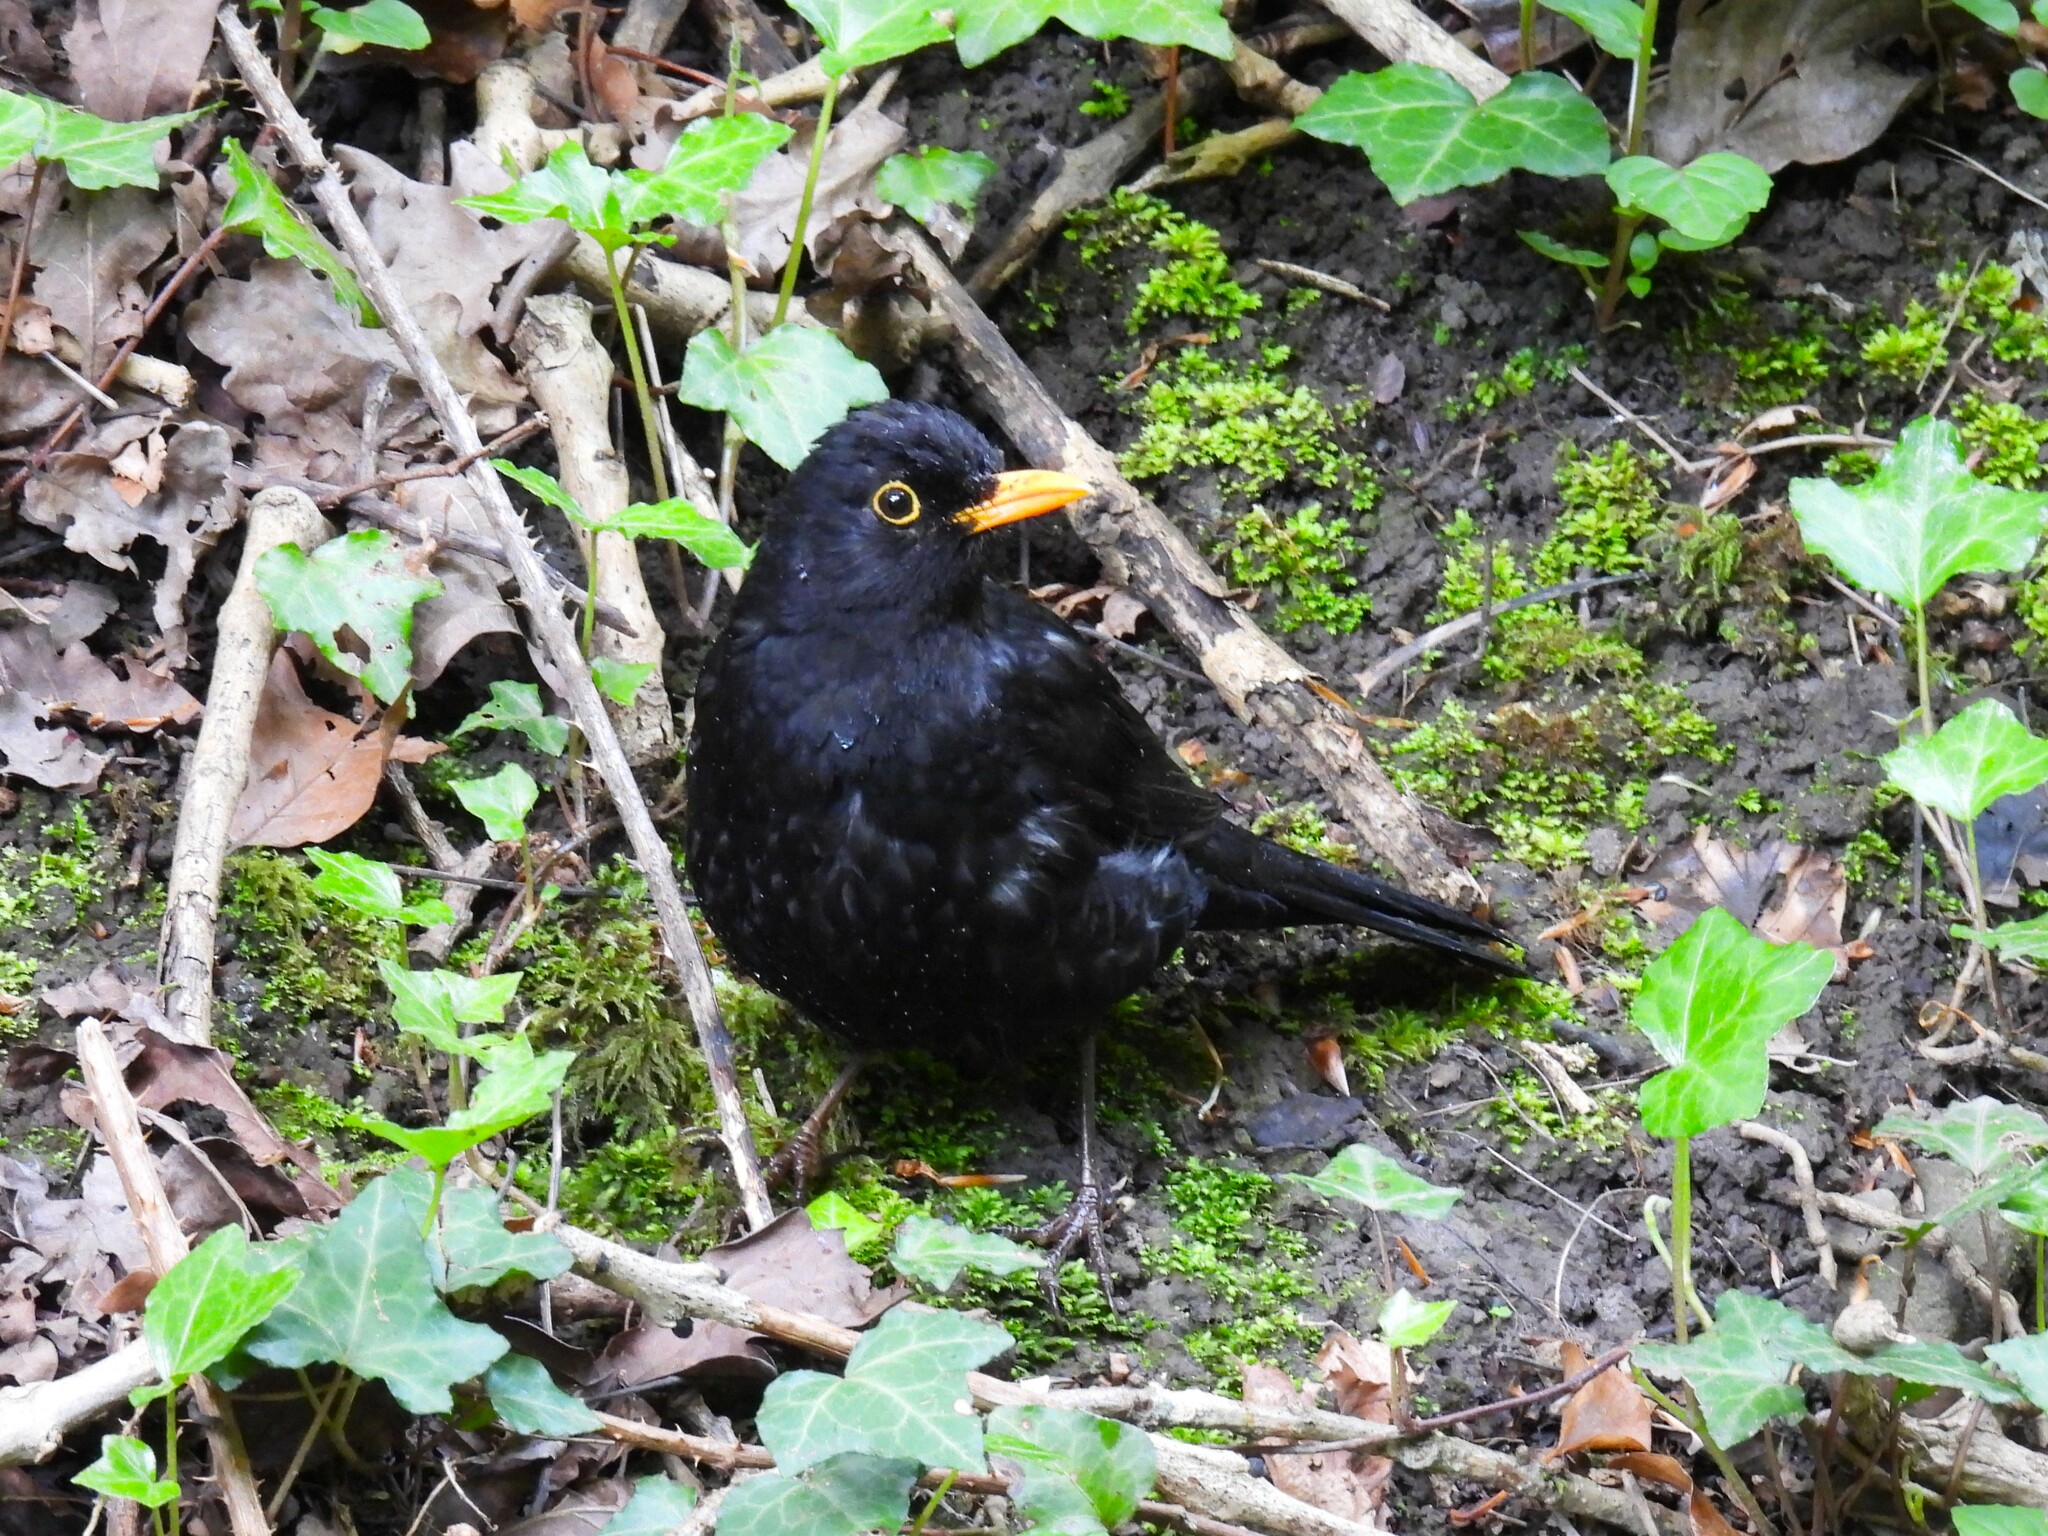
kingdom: Animalia
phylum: Chordata
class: Aves
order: Passeriformes
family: Turdidae
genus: Turdus
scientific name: Turdus merula
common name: Common blackbird
